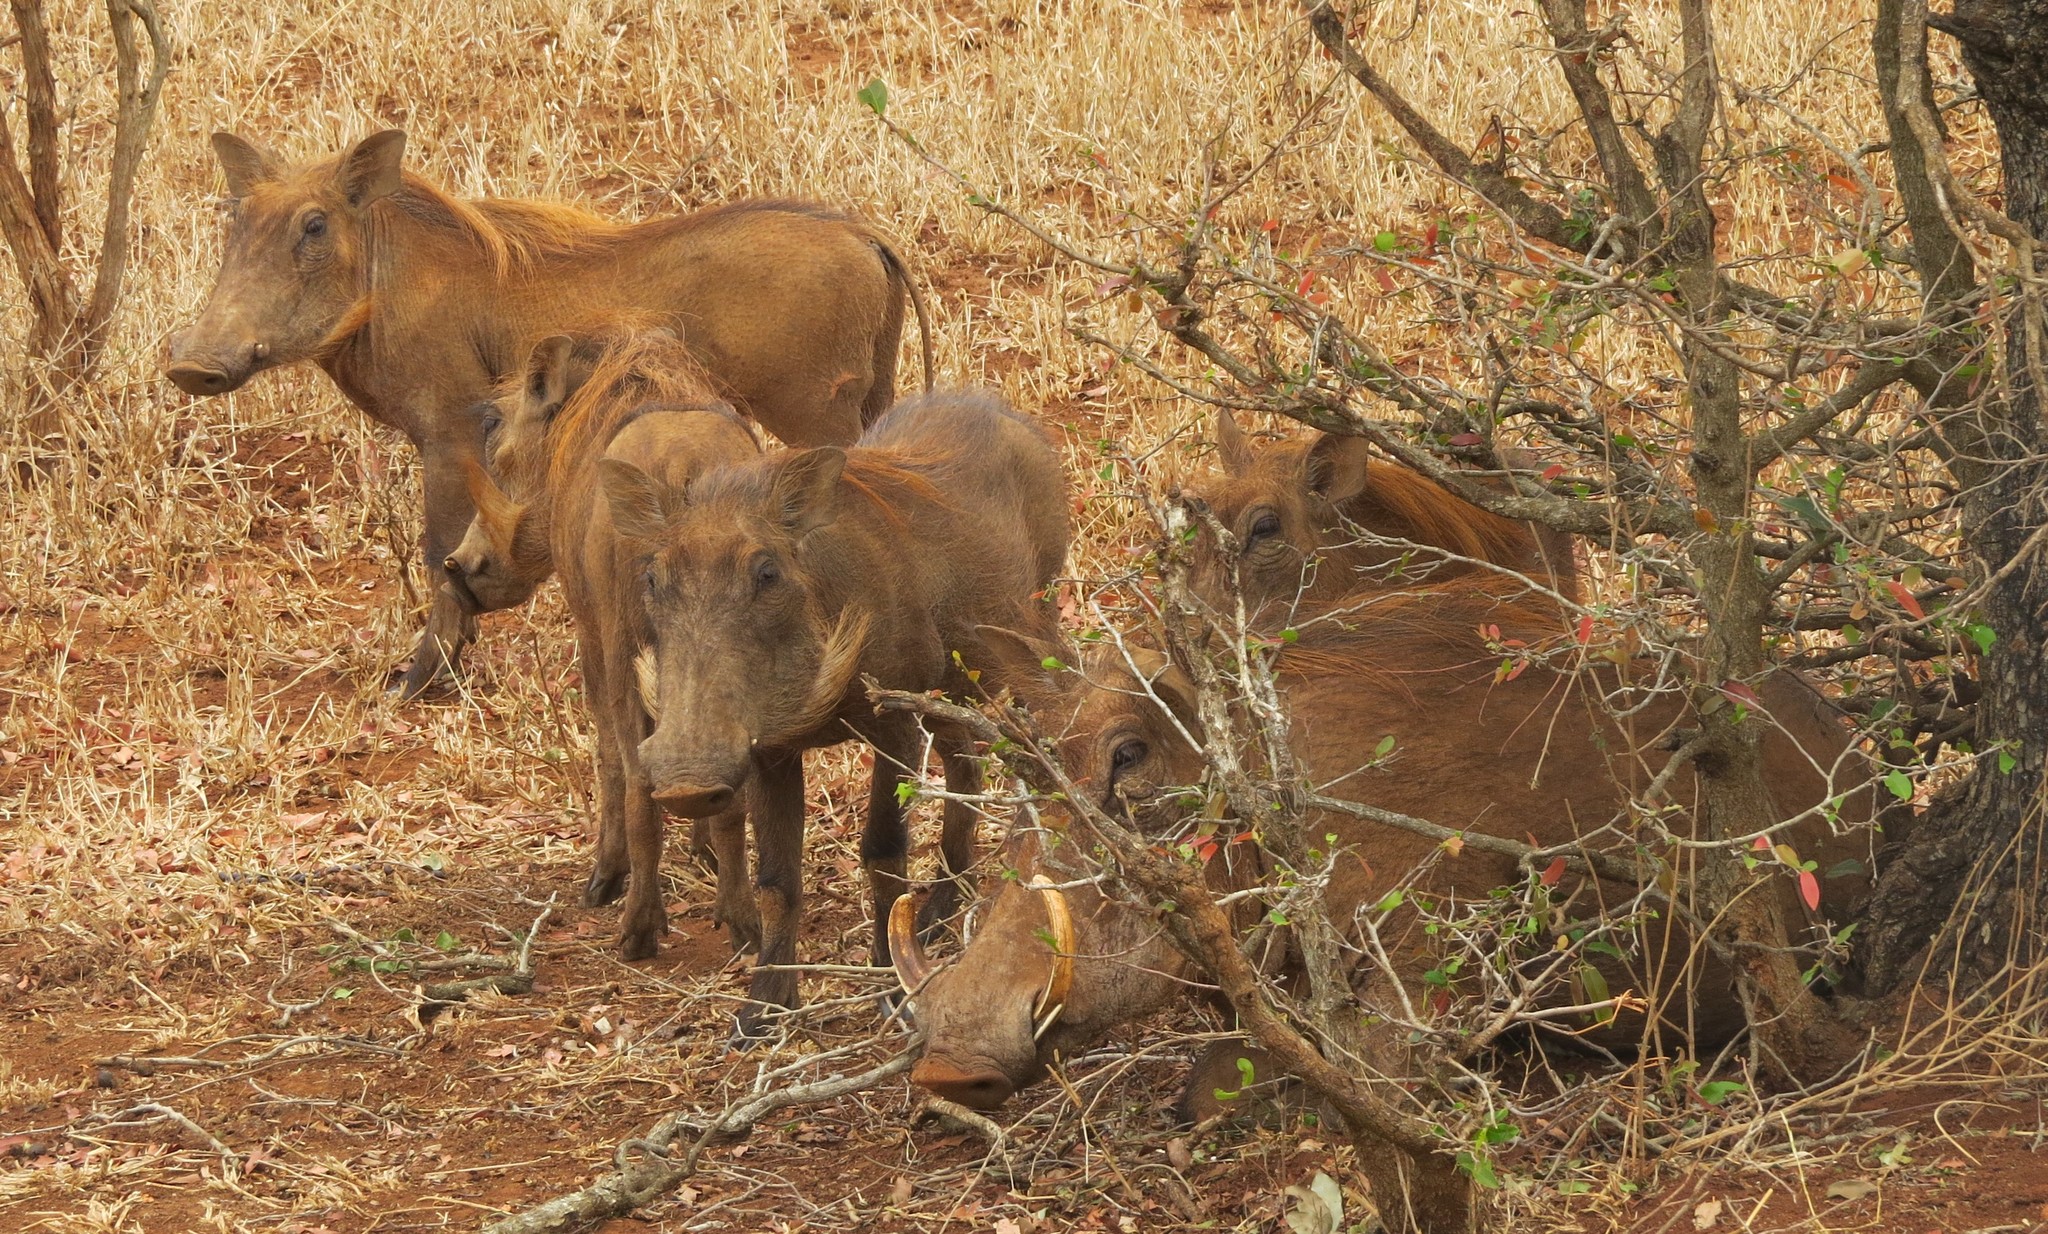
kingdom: Animalia
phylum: Chordata
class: Mammalia
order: Artiodactyla
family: Suidae
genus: Phacochoerus
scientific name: Phacochoerus africanus
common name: Common warthog
